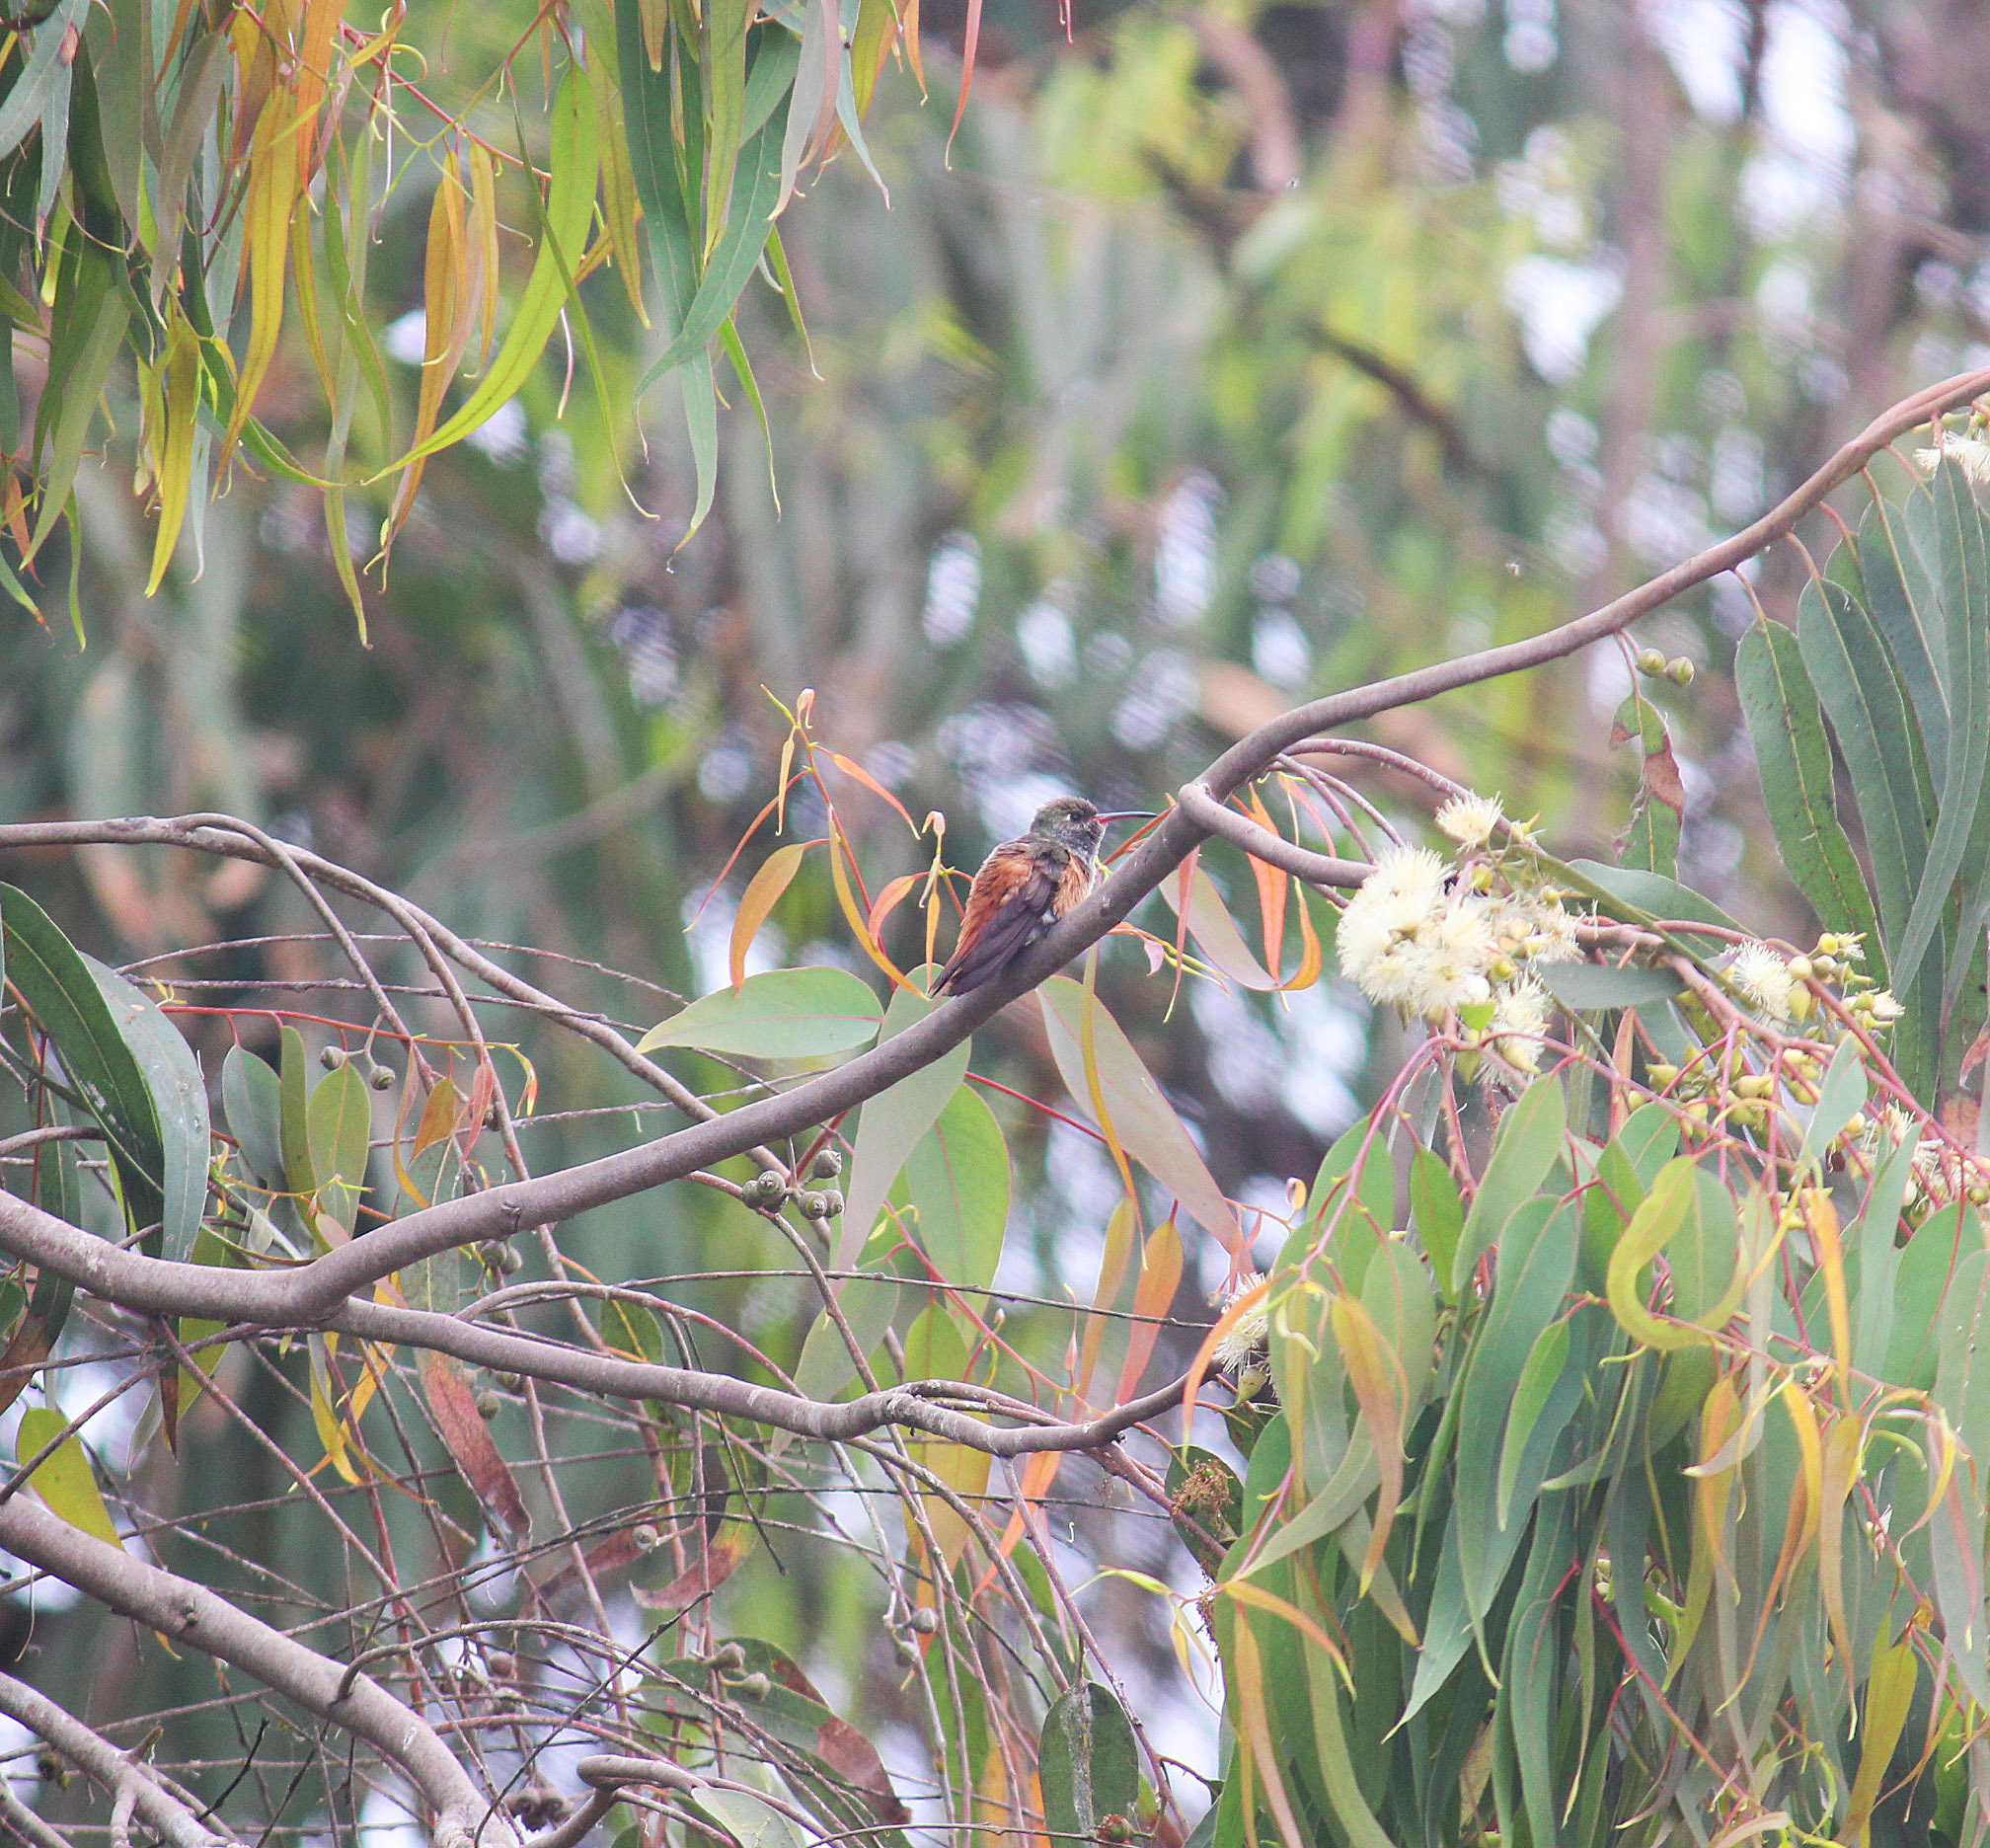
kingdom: Animalia
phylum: Chordata
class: Aves
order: Apodiformes
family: Trochilidae
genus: Amazilis
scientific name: Amazilis amazilia
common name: Amazilia hummingbird
